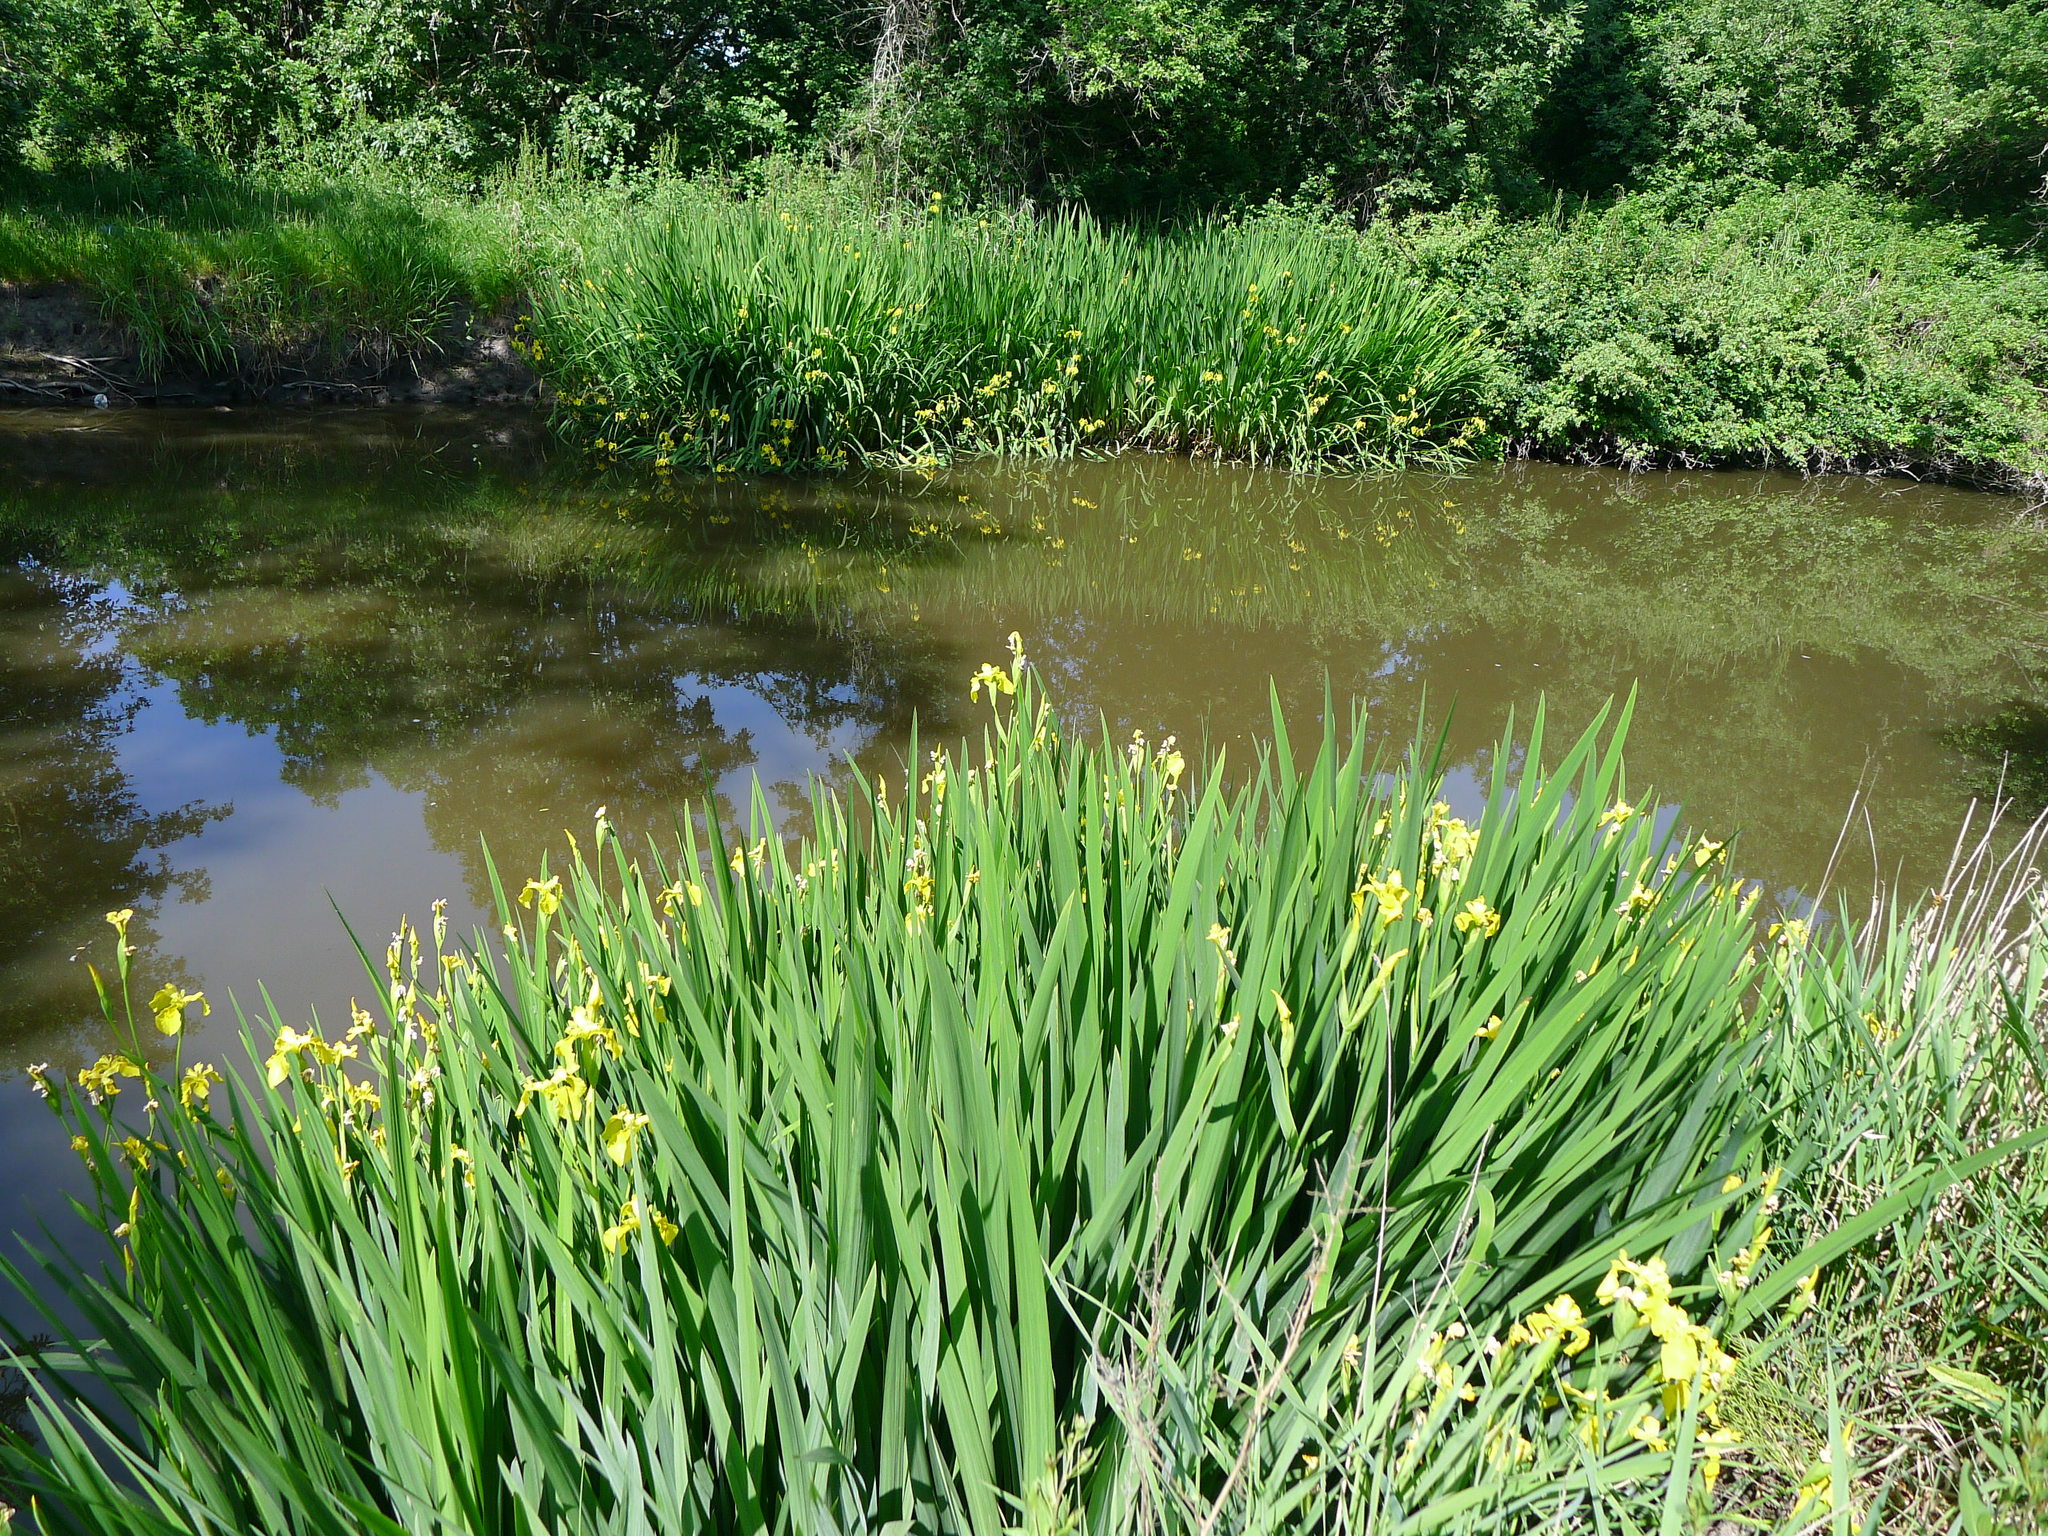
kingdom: Plantae
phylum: Tracheophyta
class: Liliopsida
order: Asparagales
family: Iridaceae
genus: Iris
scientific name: Iris pseudacorus
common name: Yellow flag
